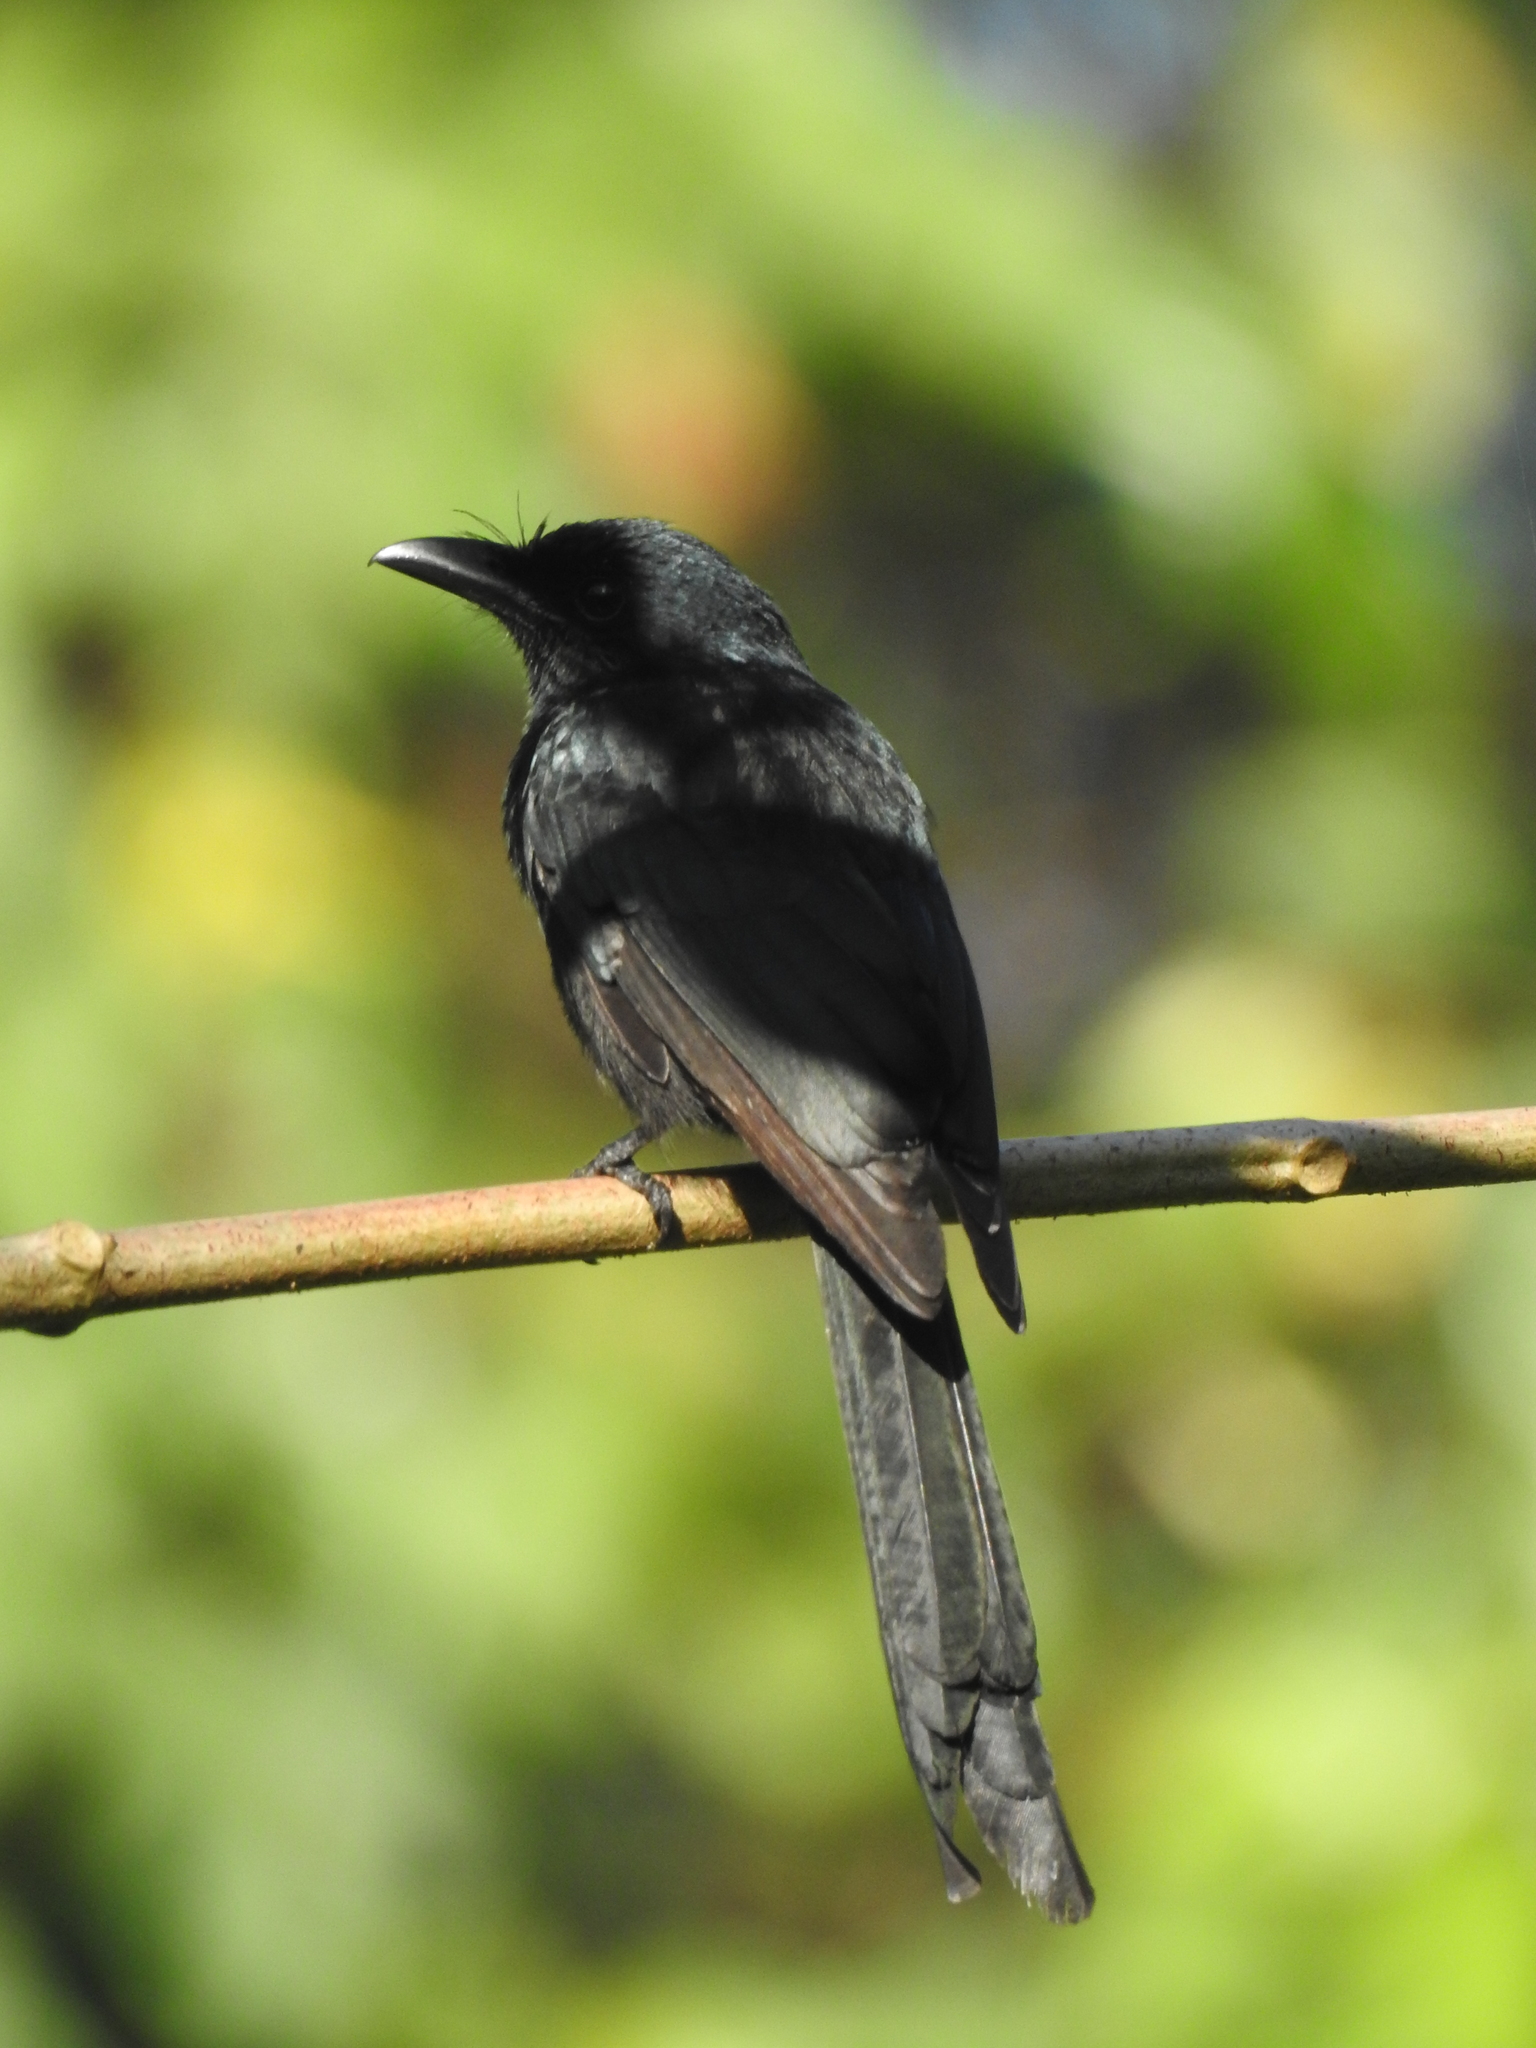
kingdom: Animalia
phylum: Chordata
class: Aves
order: Passeriformes
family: Dicruridae
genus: Dicrurus
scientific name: Dicrurus andamanensis
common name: Andaman drongo
